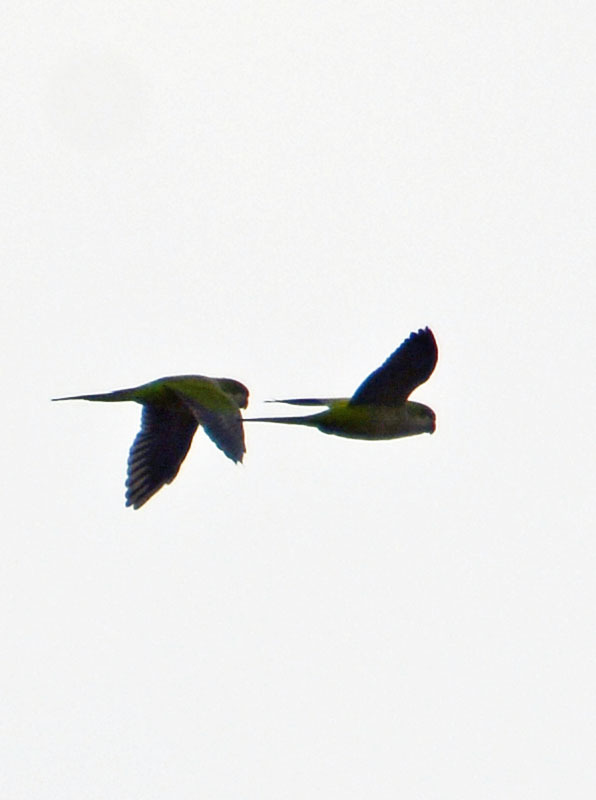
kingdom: Animalia
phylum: Chordata
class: Aves
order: Psittaciformes
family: Psittacidae
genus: Myiopsitta
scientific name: Myiopsitta monachus
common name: Monk parakeet
